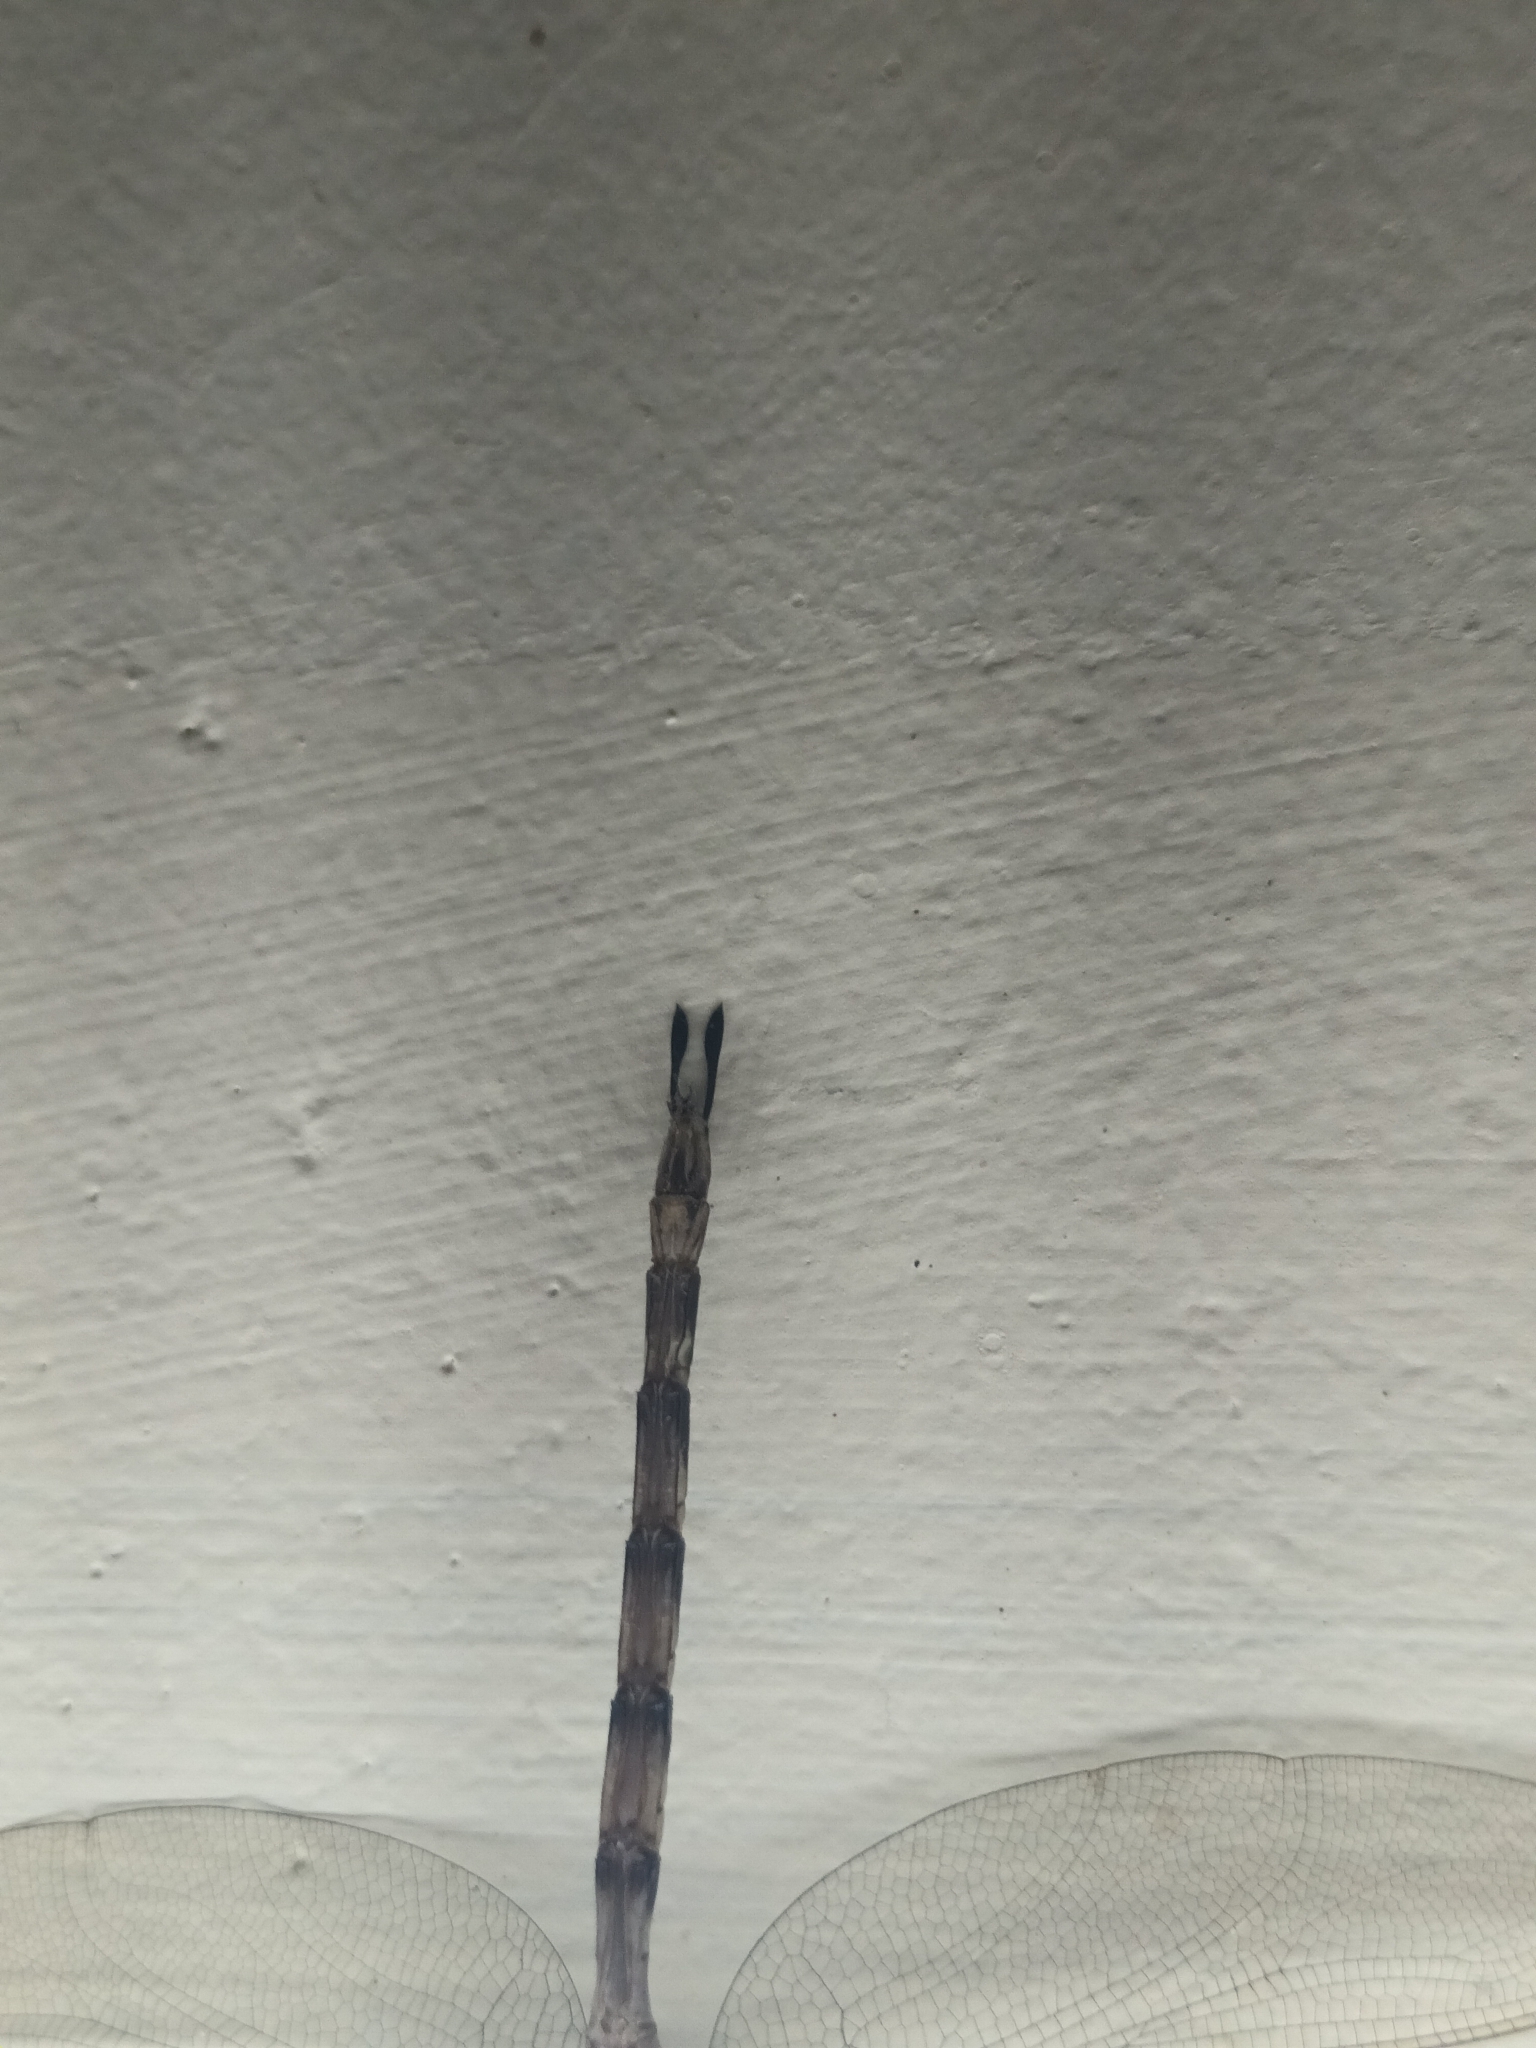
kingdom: Animalia
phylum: Arthropoda
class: Insecta
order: Odonata
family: Aeshnidae
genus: Gynacantha
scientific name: Gynacantha dravida
